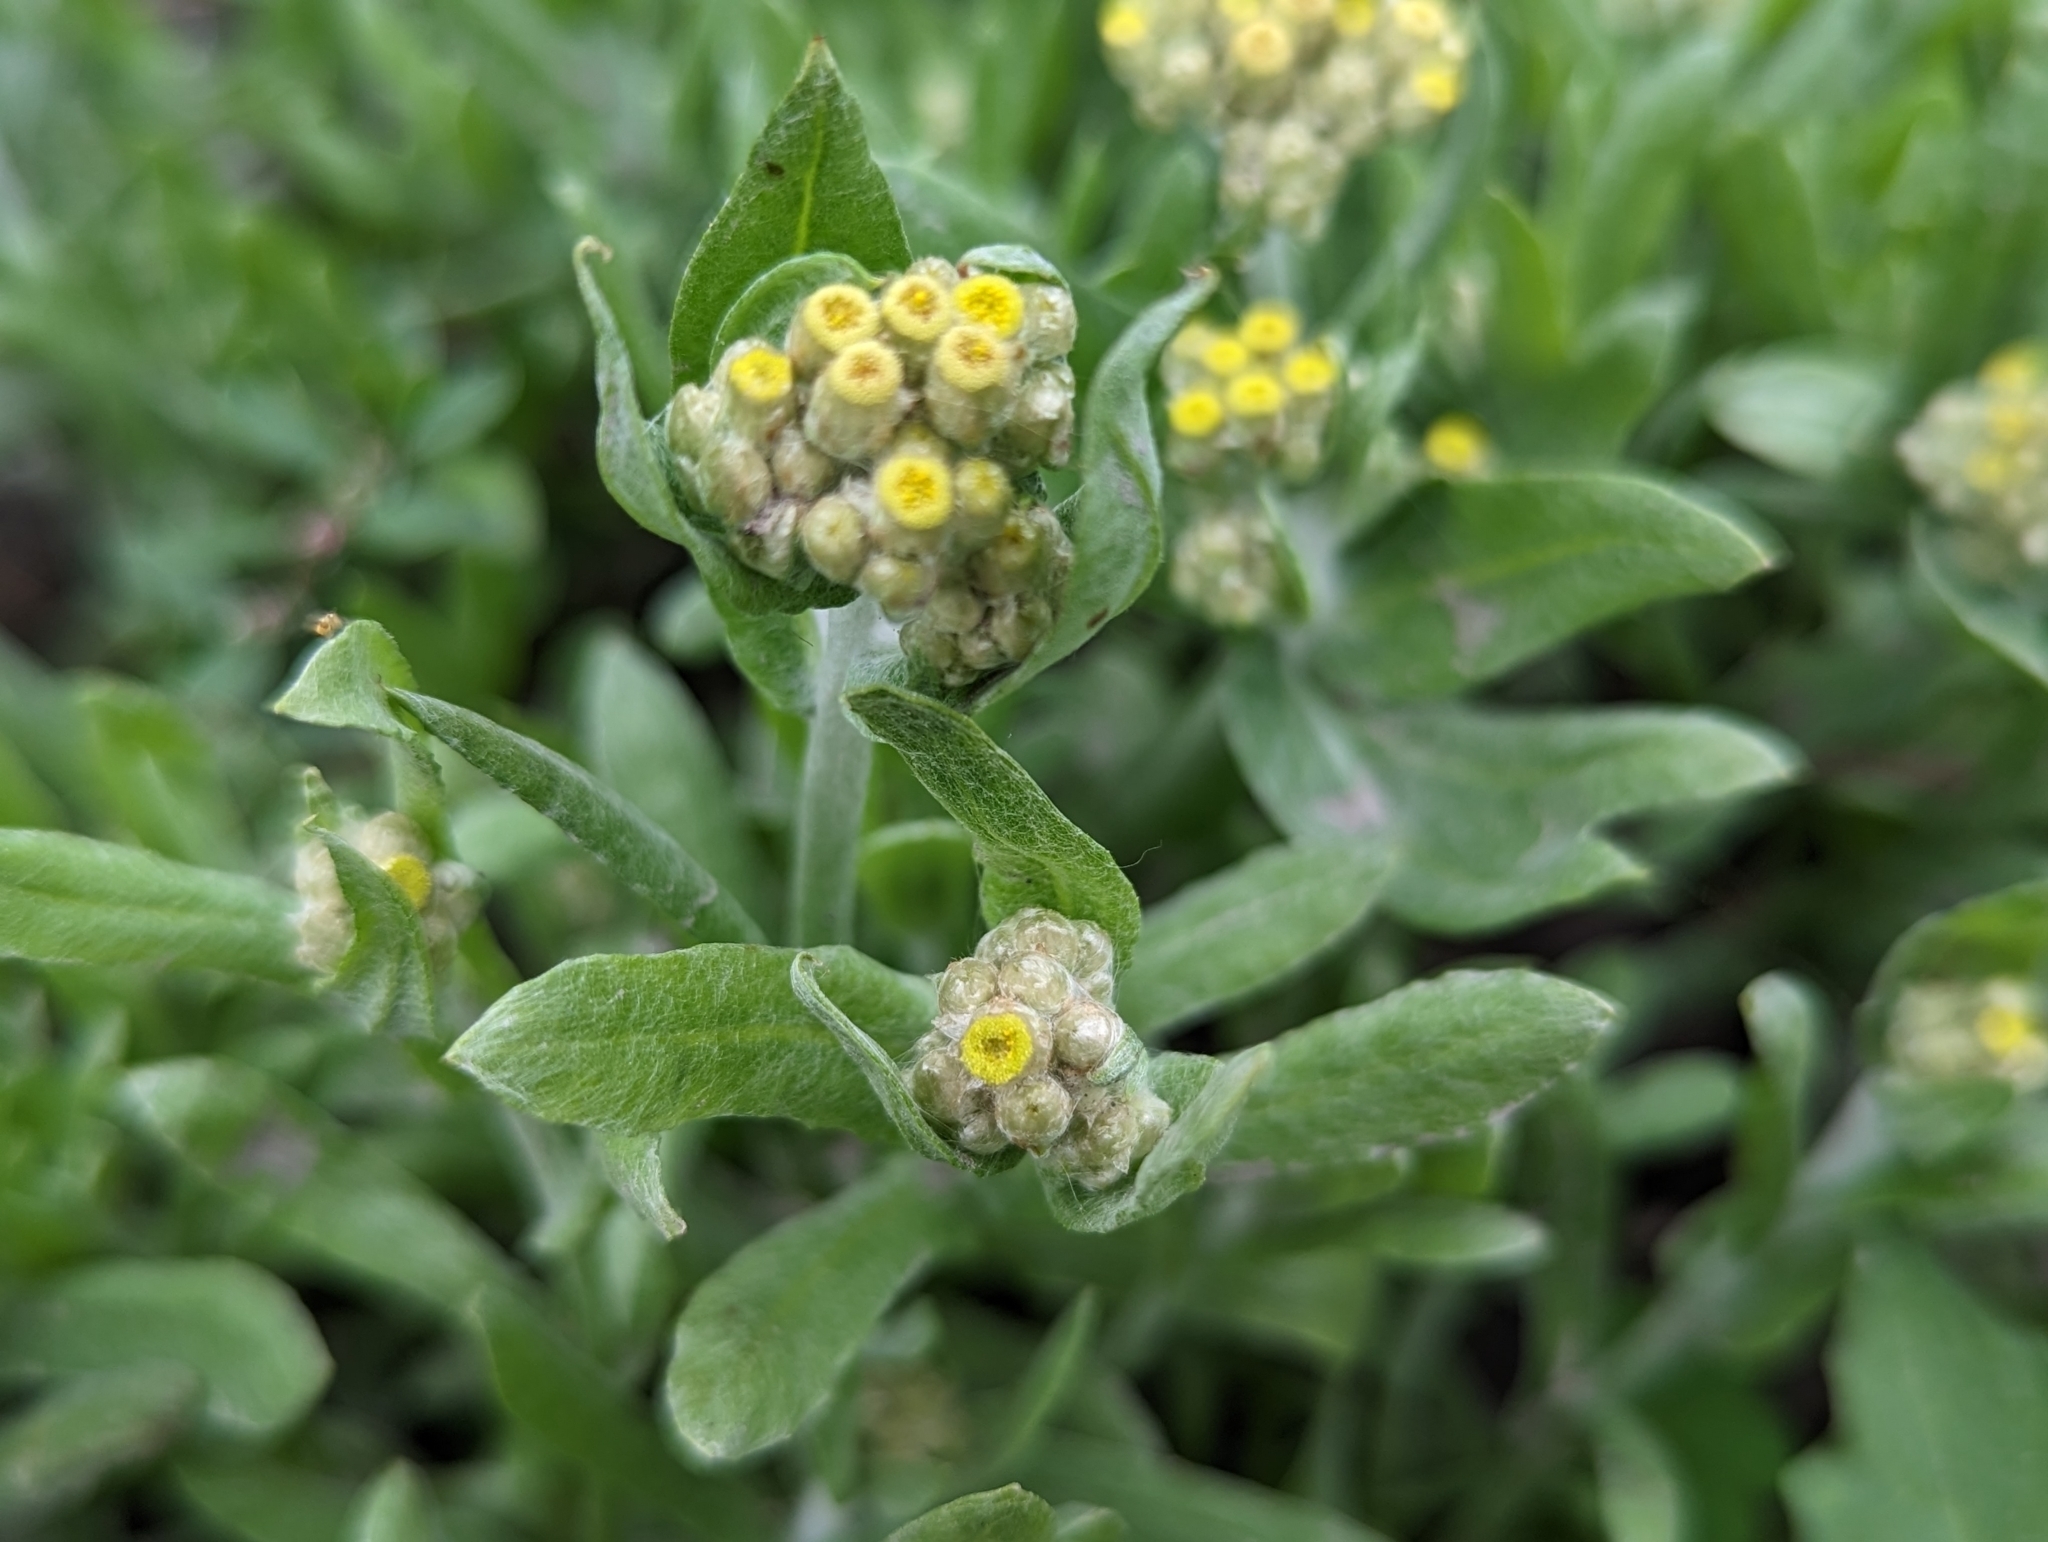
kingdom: Plantae
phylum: Tracheophyta
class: Magnoliopsida
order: Asterales
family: Asteraceae
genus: Pseudognaphalium
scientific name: Pseudognaphalium affine
